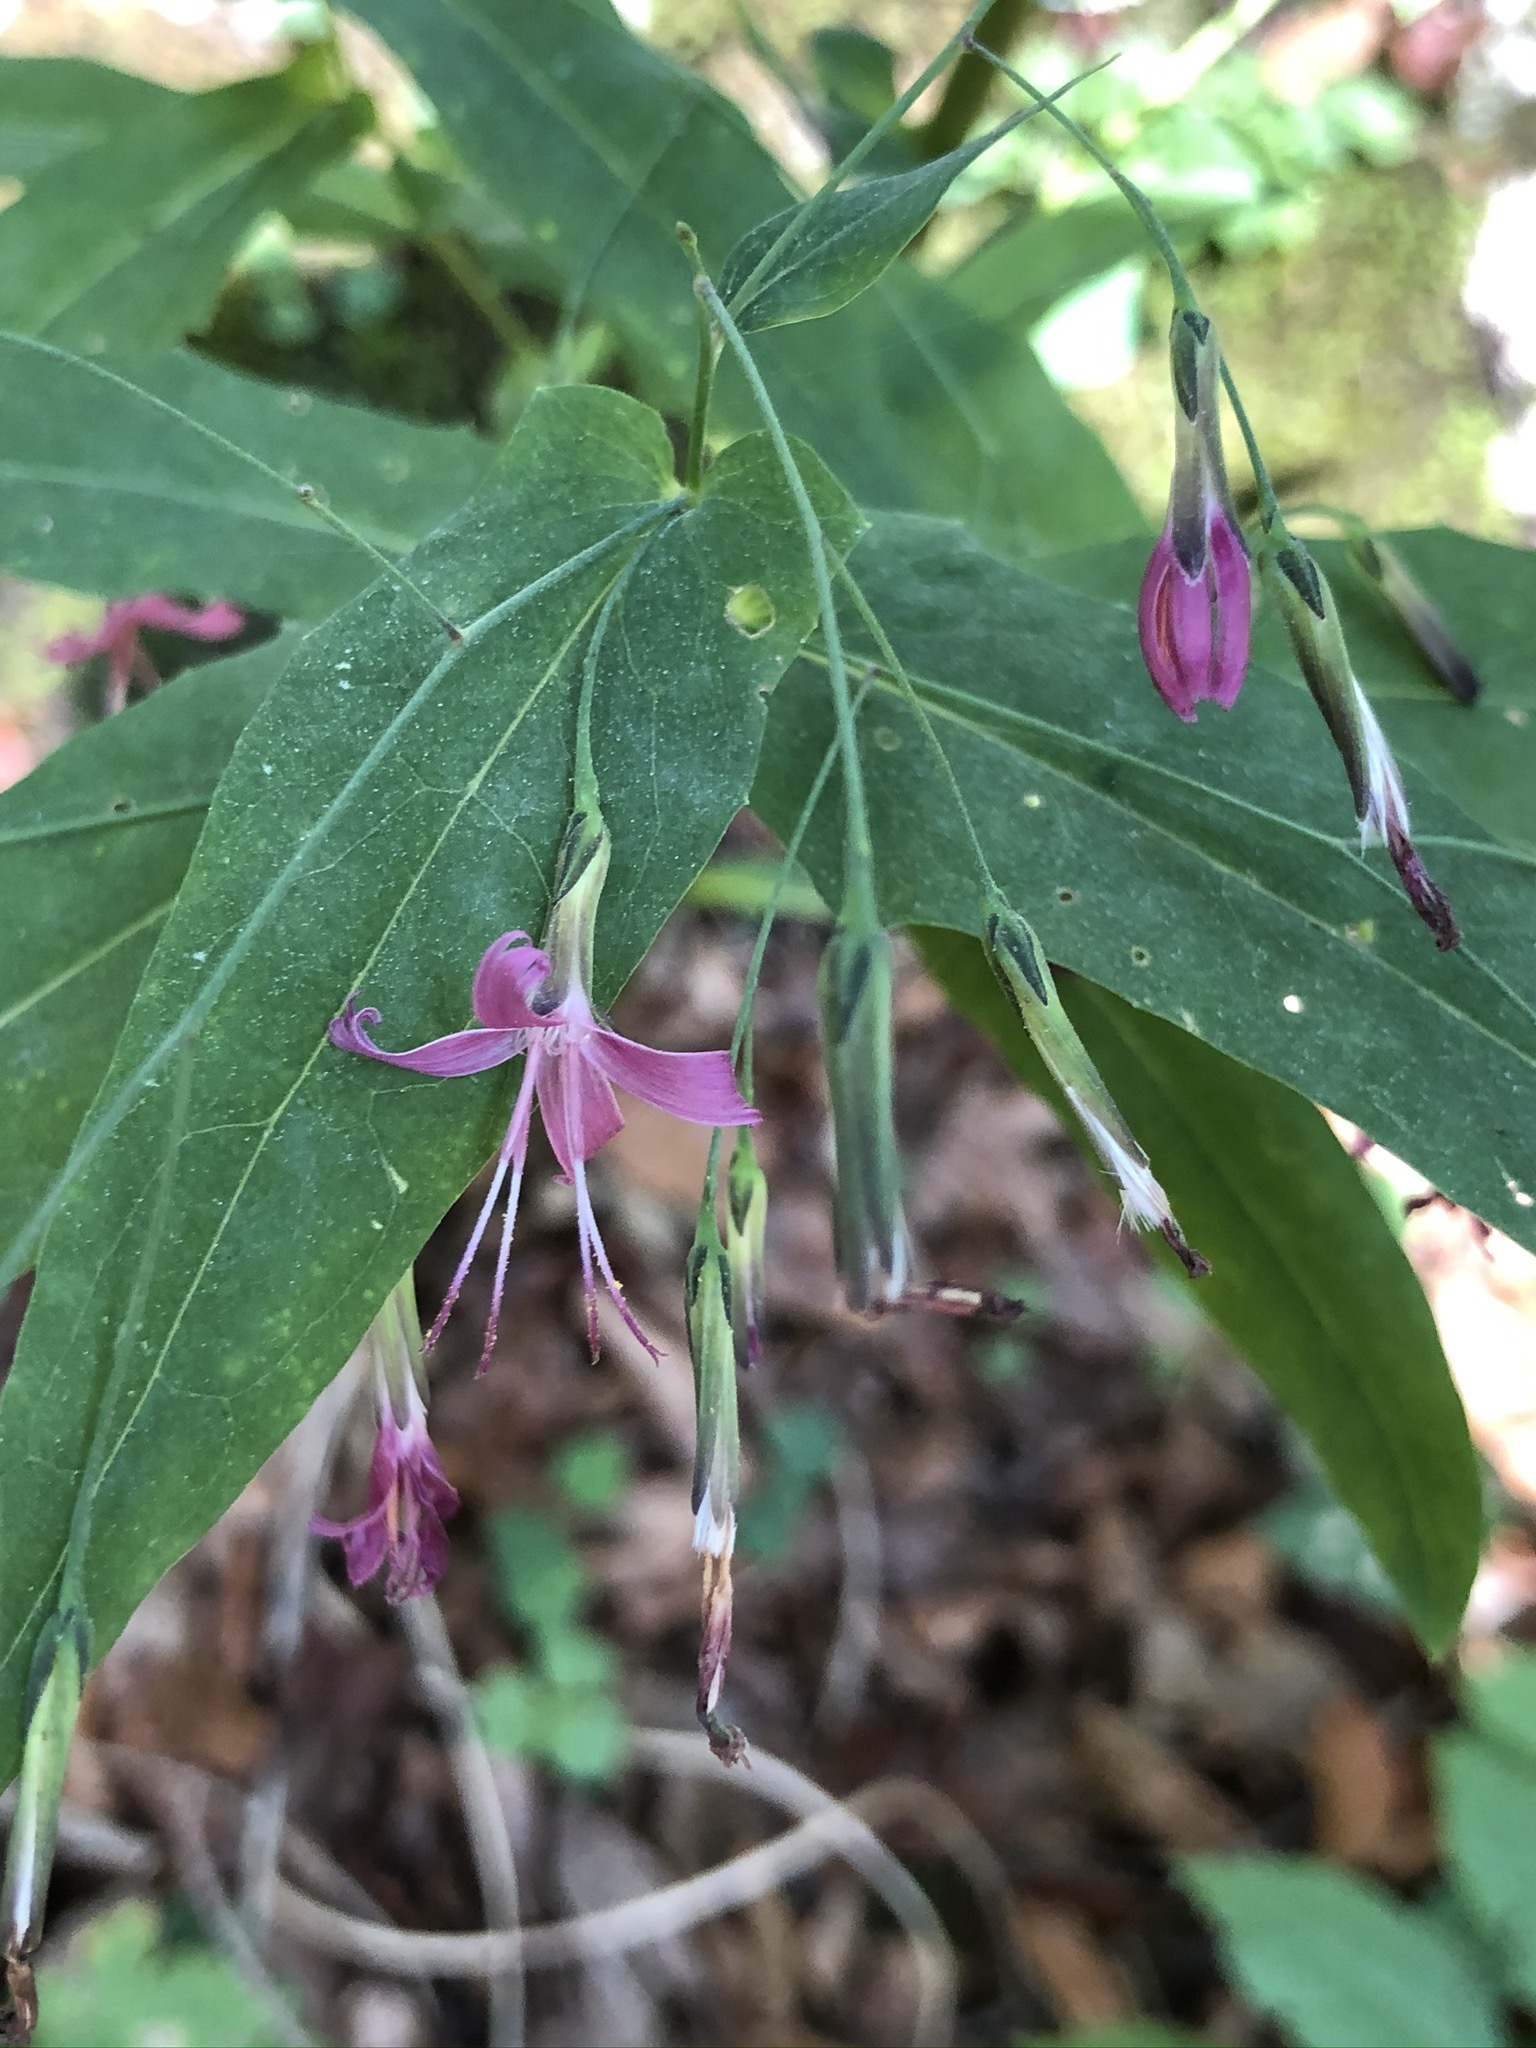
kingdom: Plantae
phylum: Tracheophyta
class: Magnoliopsida
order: Asterales
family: Asteraceae
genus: Prenanthes
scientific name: Prenanthes purpurea
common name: Purple lettuce
